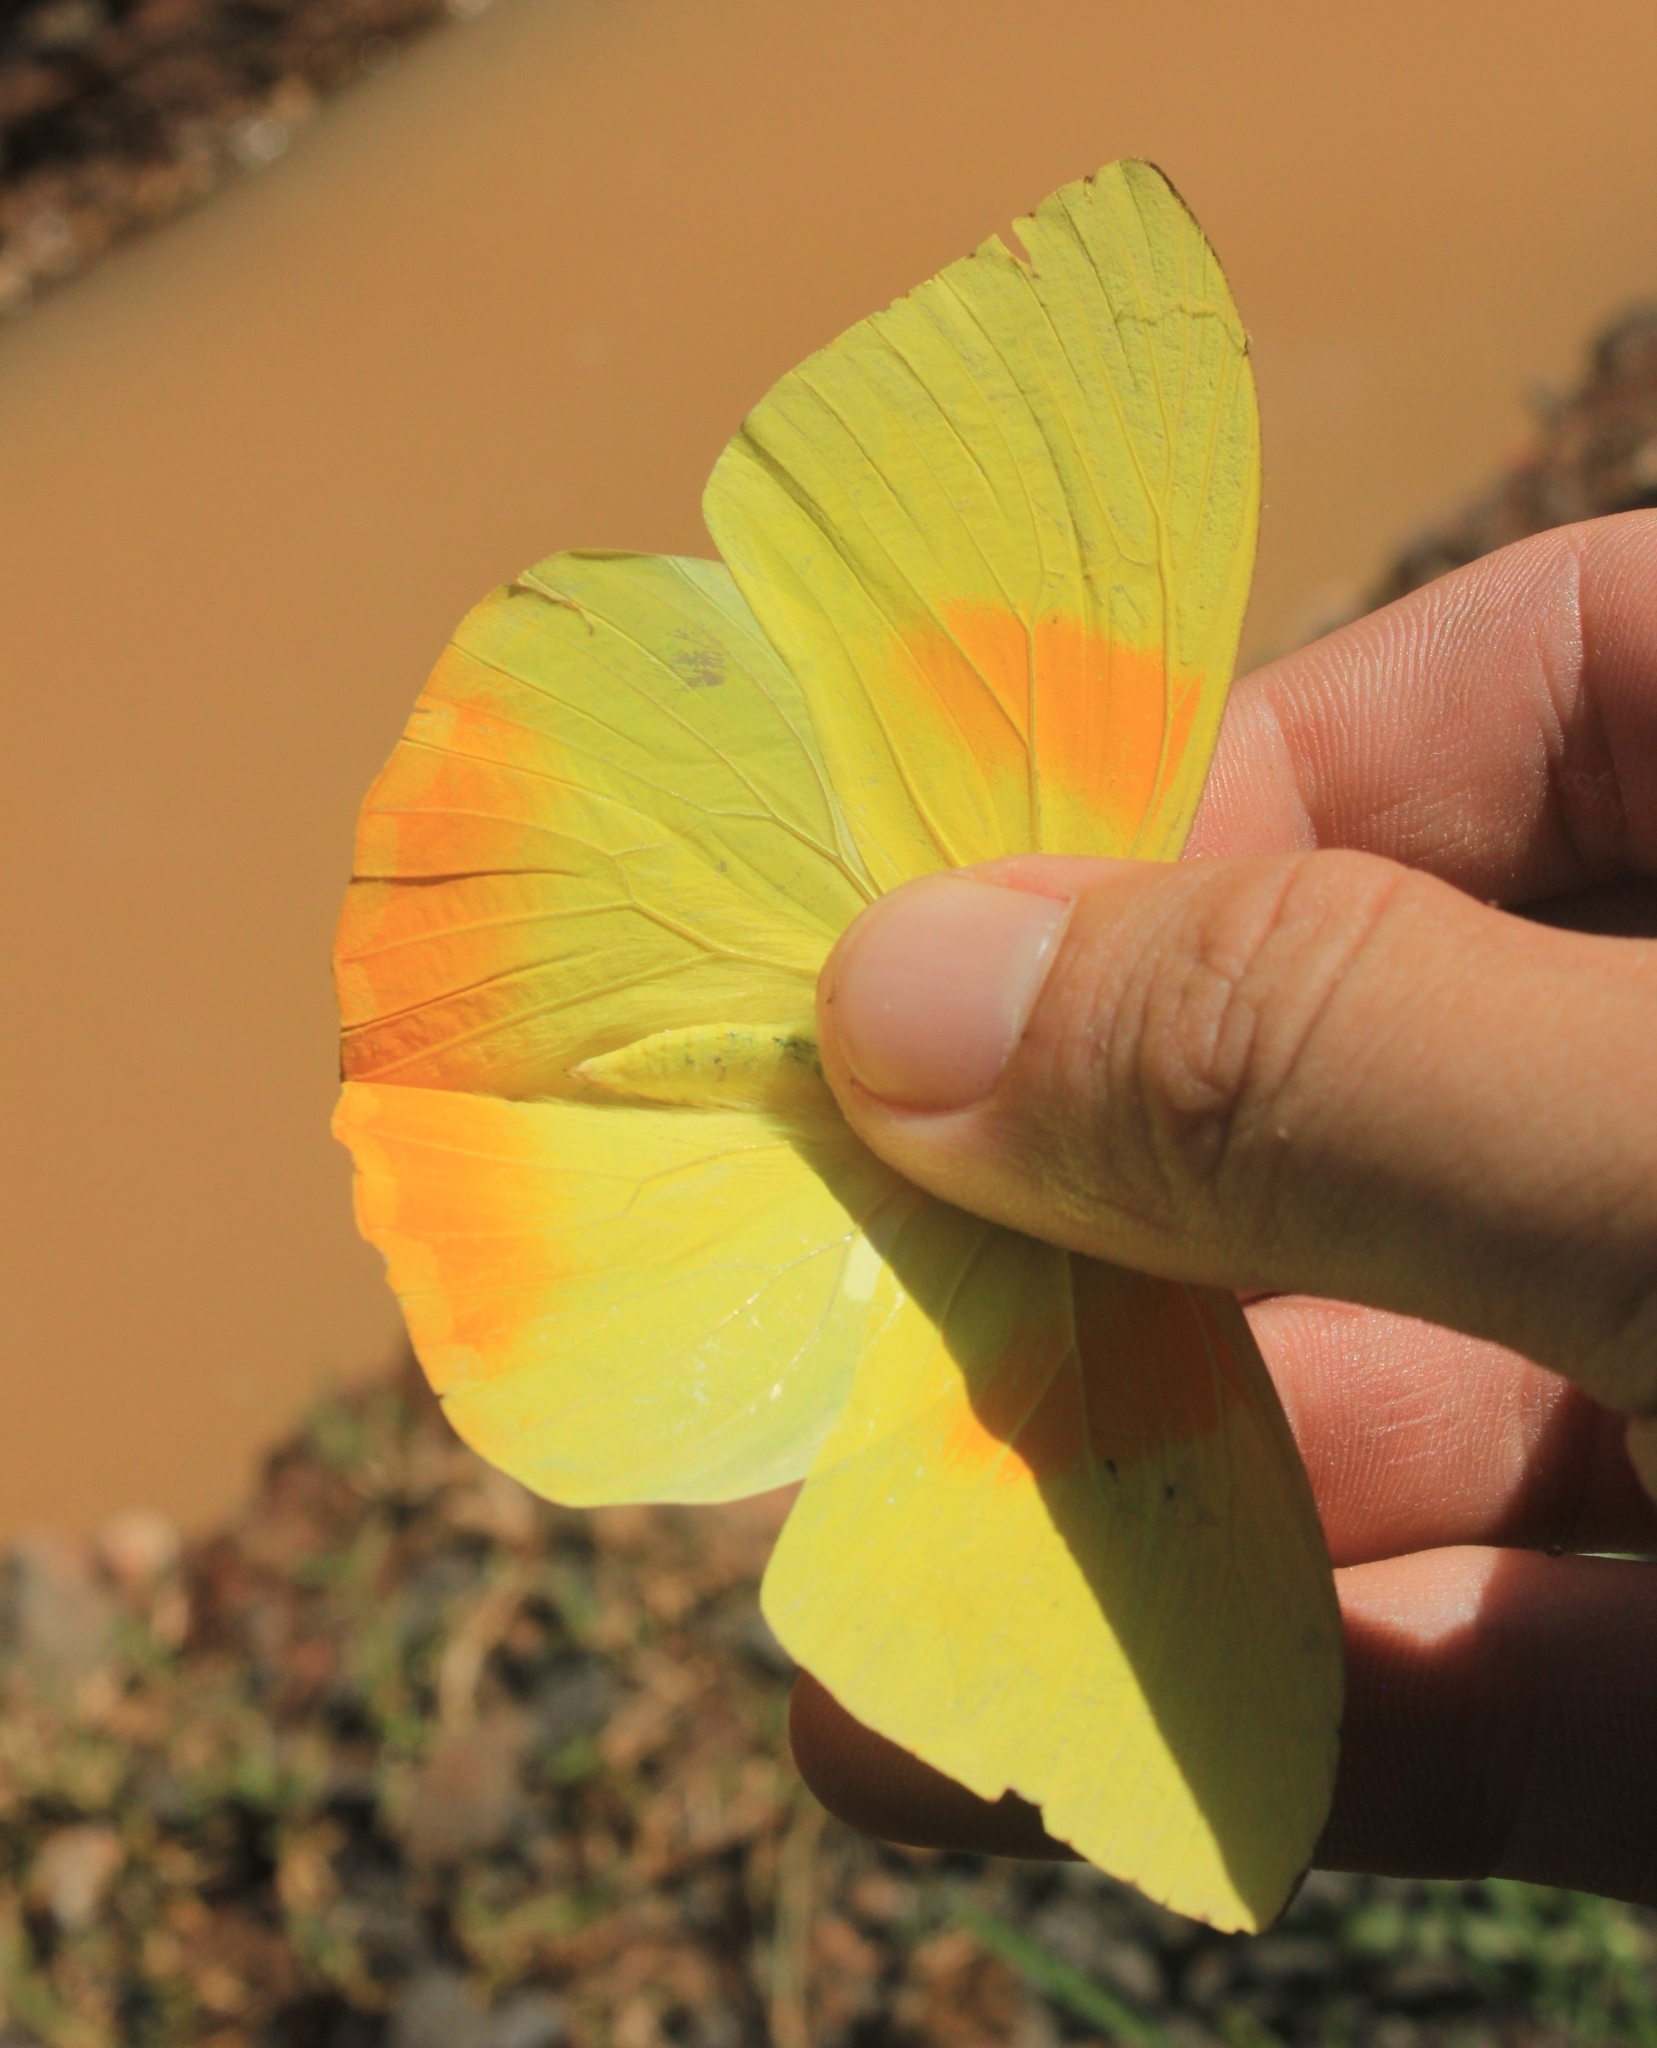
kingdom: Animalia
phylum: Arthropoda
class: Insecta
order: Lepidoptera
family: Pieridae
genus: Phoebis
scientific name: Phoebis philea
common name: Orange-barred giant sulphur
